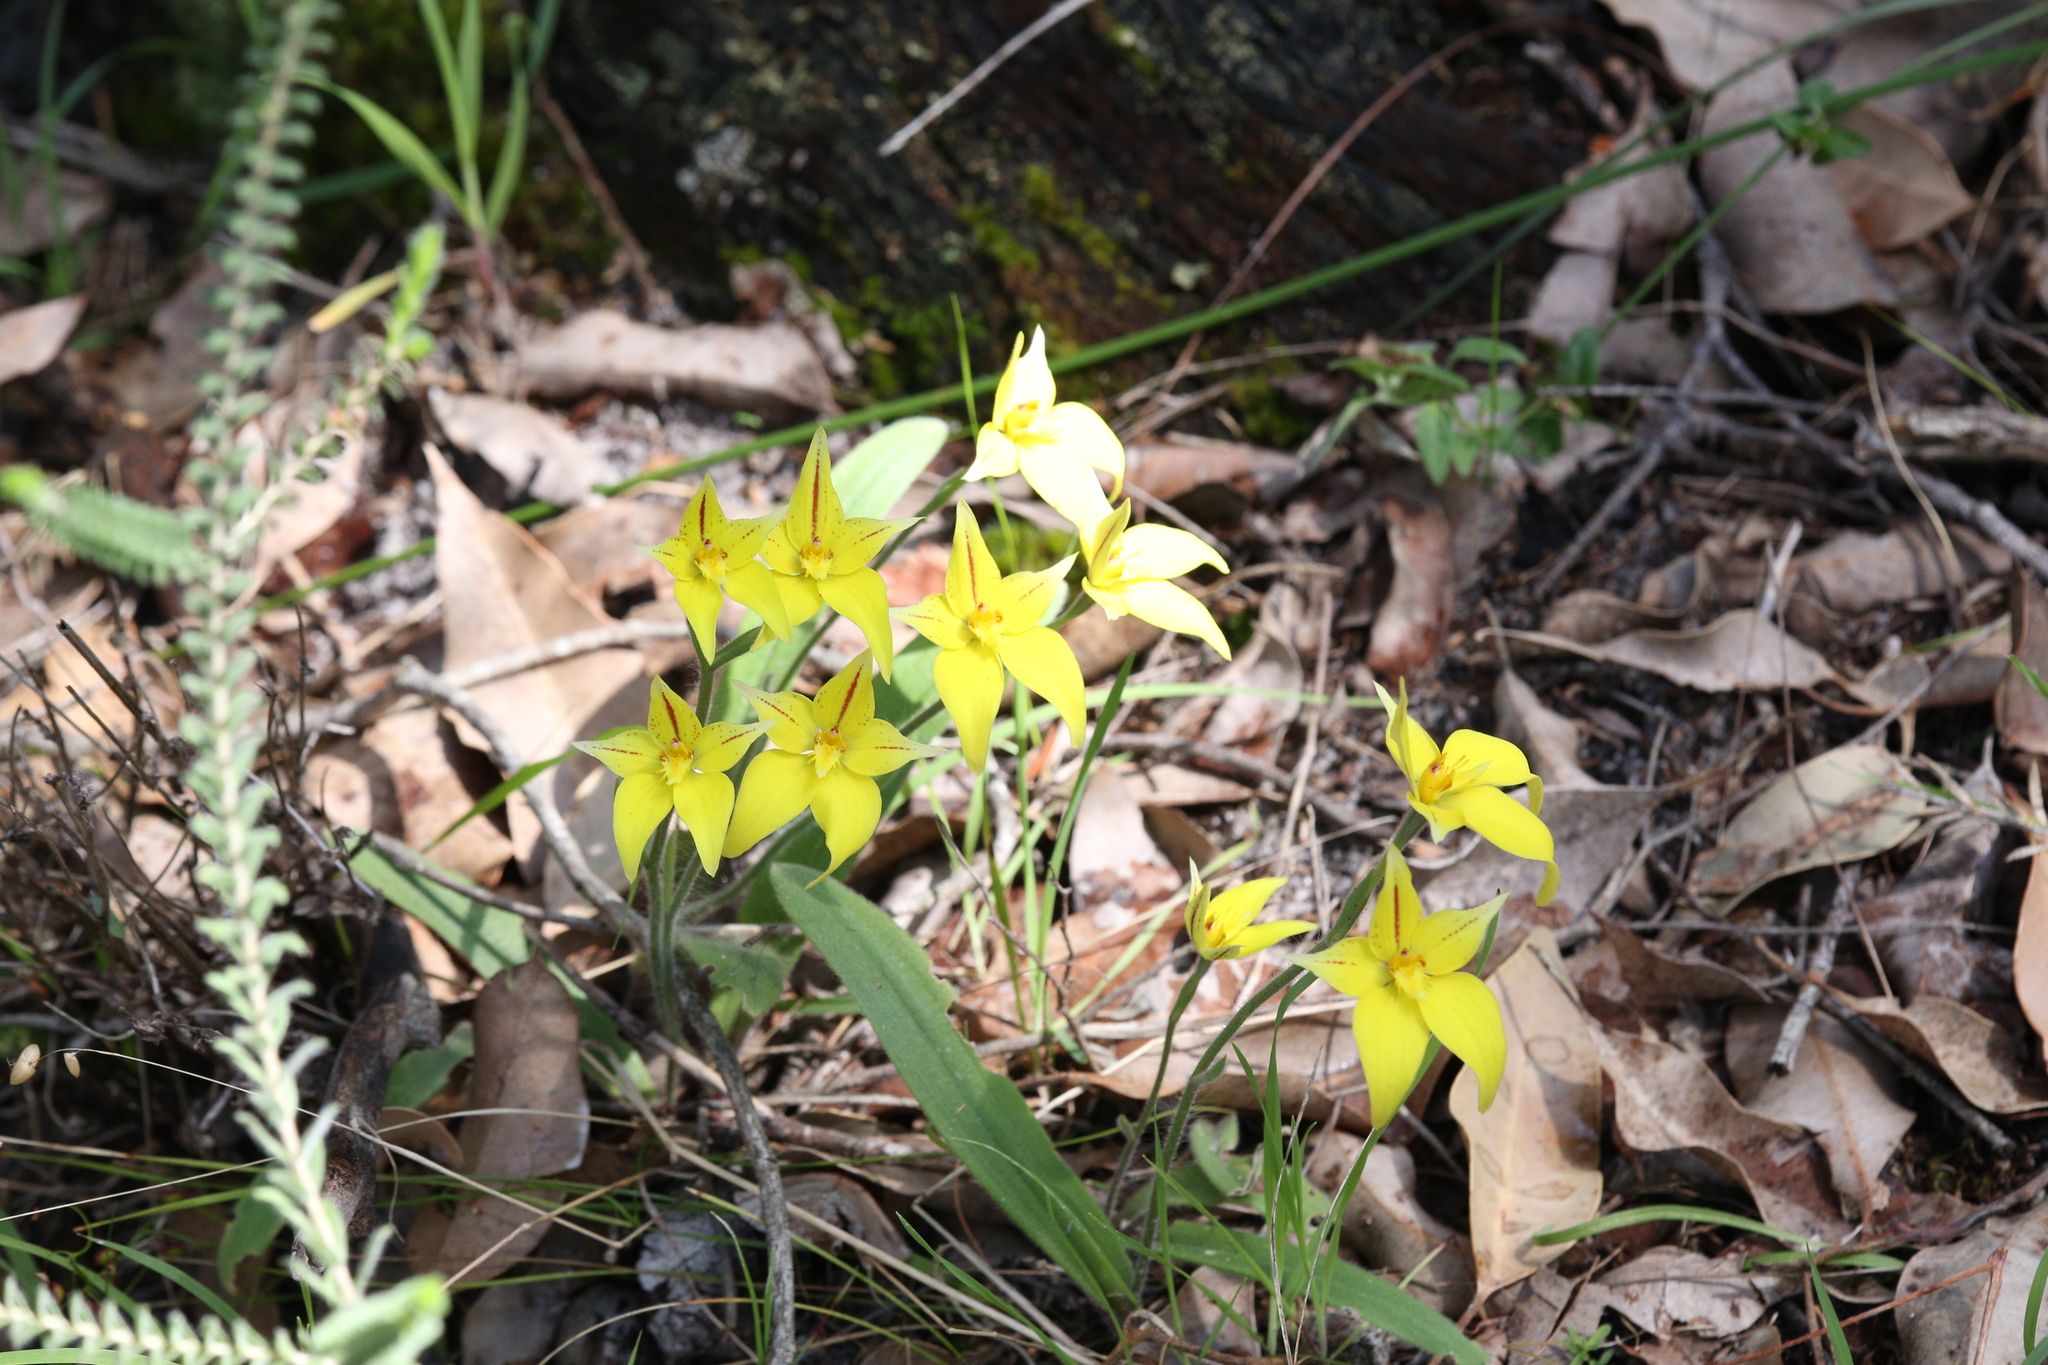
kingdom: Plantae
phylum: Tracheophyta
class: Liliopsida
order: Asparagales
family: Orchidaceae
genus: Caladenia
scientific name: Caladenia flava
